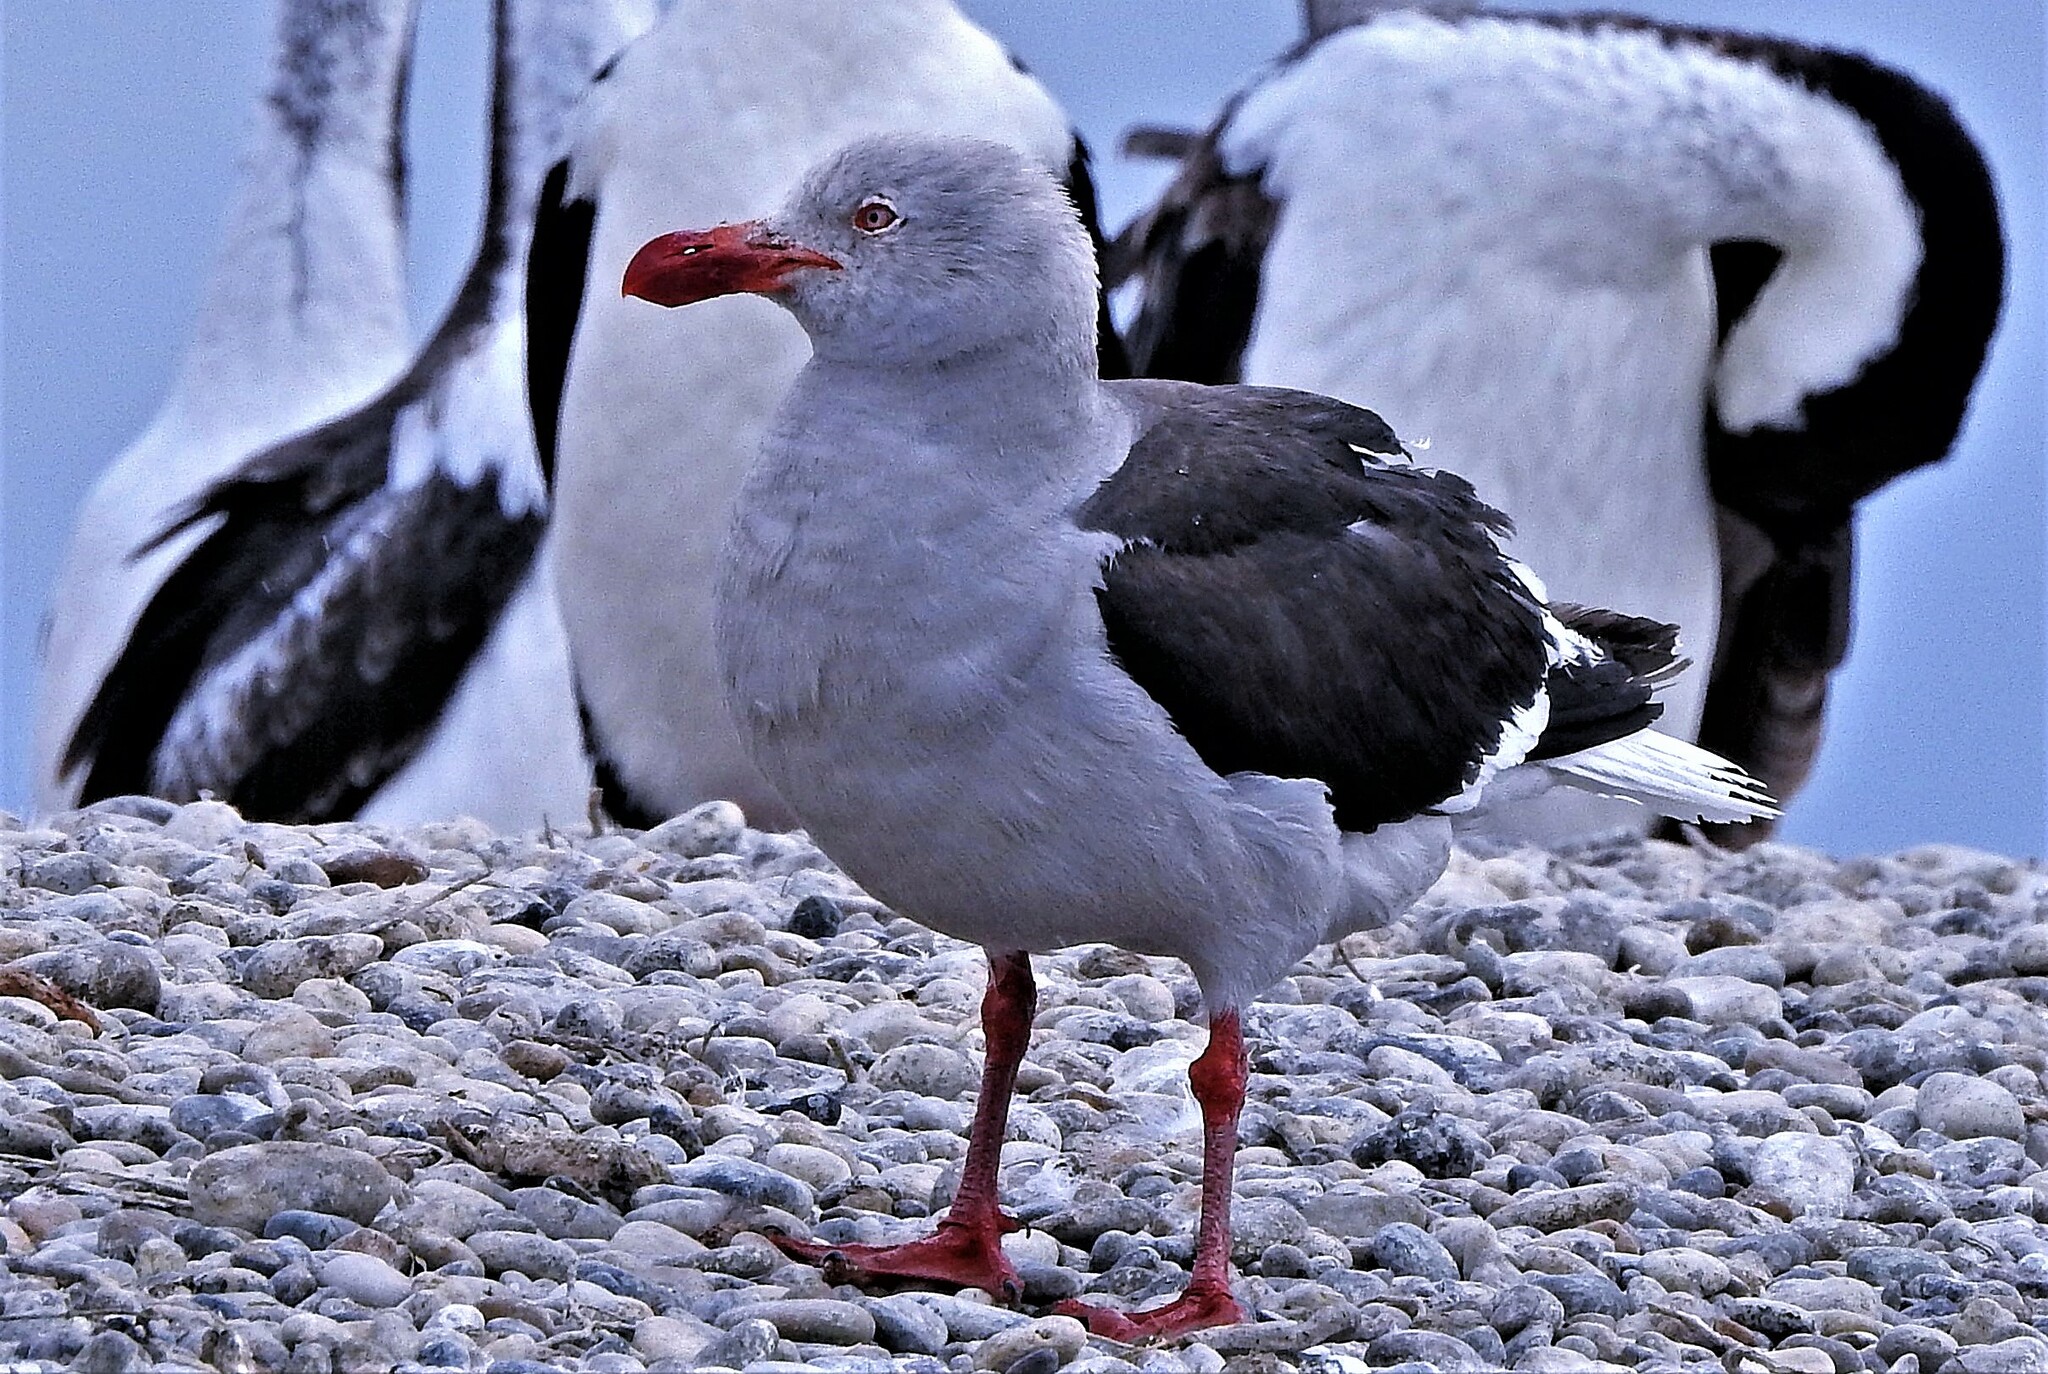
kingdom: Animalia
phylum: Chordata
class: Aves
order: Charadriiformes
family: Laridae
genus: Leucophaeus
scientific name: Leucophaeus scoresbii
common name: Dolphin gull
